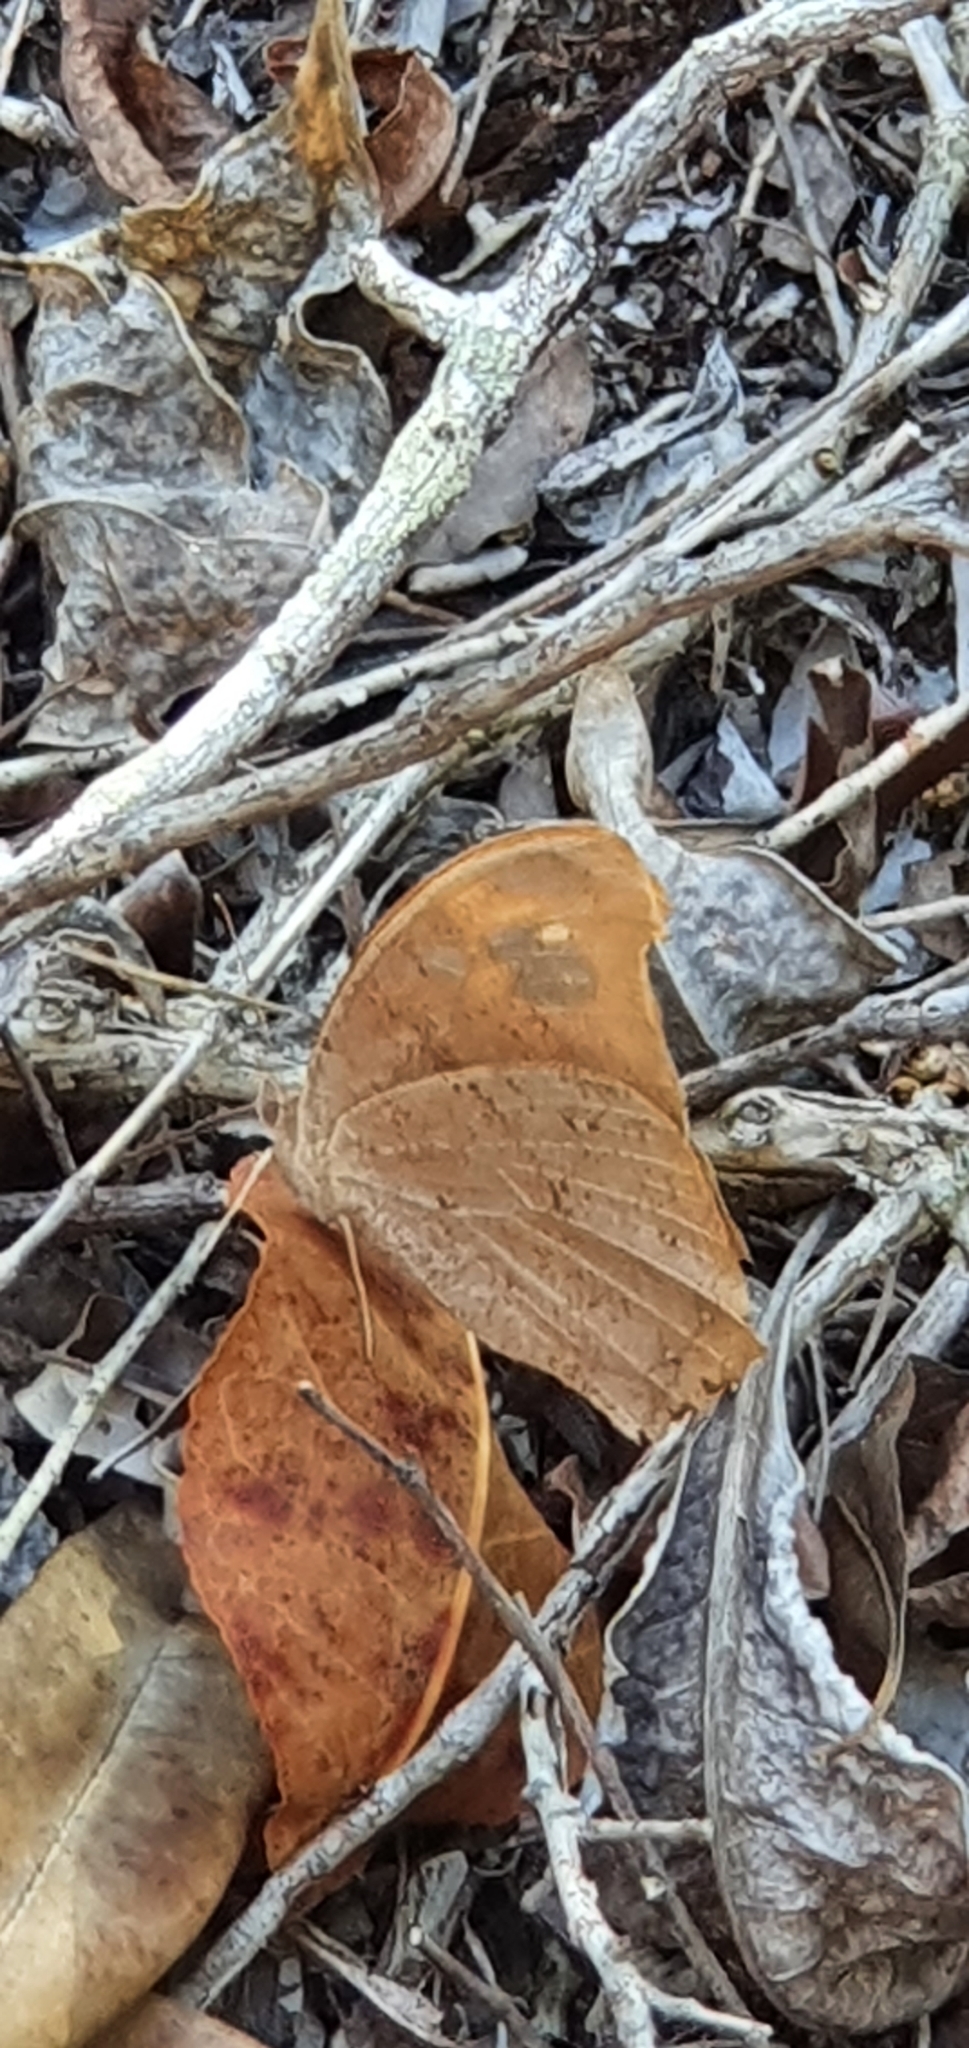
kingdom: Animalia
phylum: Arthropoda
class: Insecta
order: Lepidoptera
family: Nymphalidae
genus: Melanitis
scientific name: Melanitis leda
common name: Twilight brown
